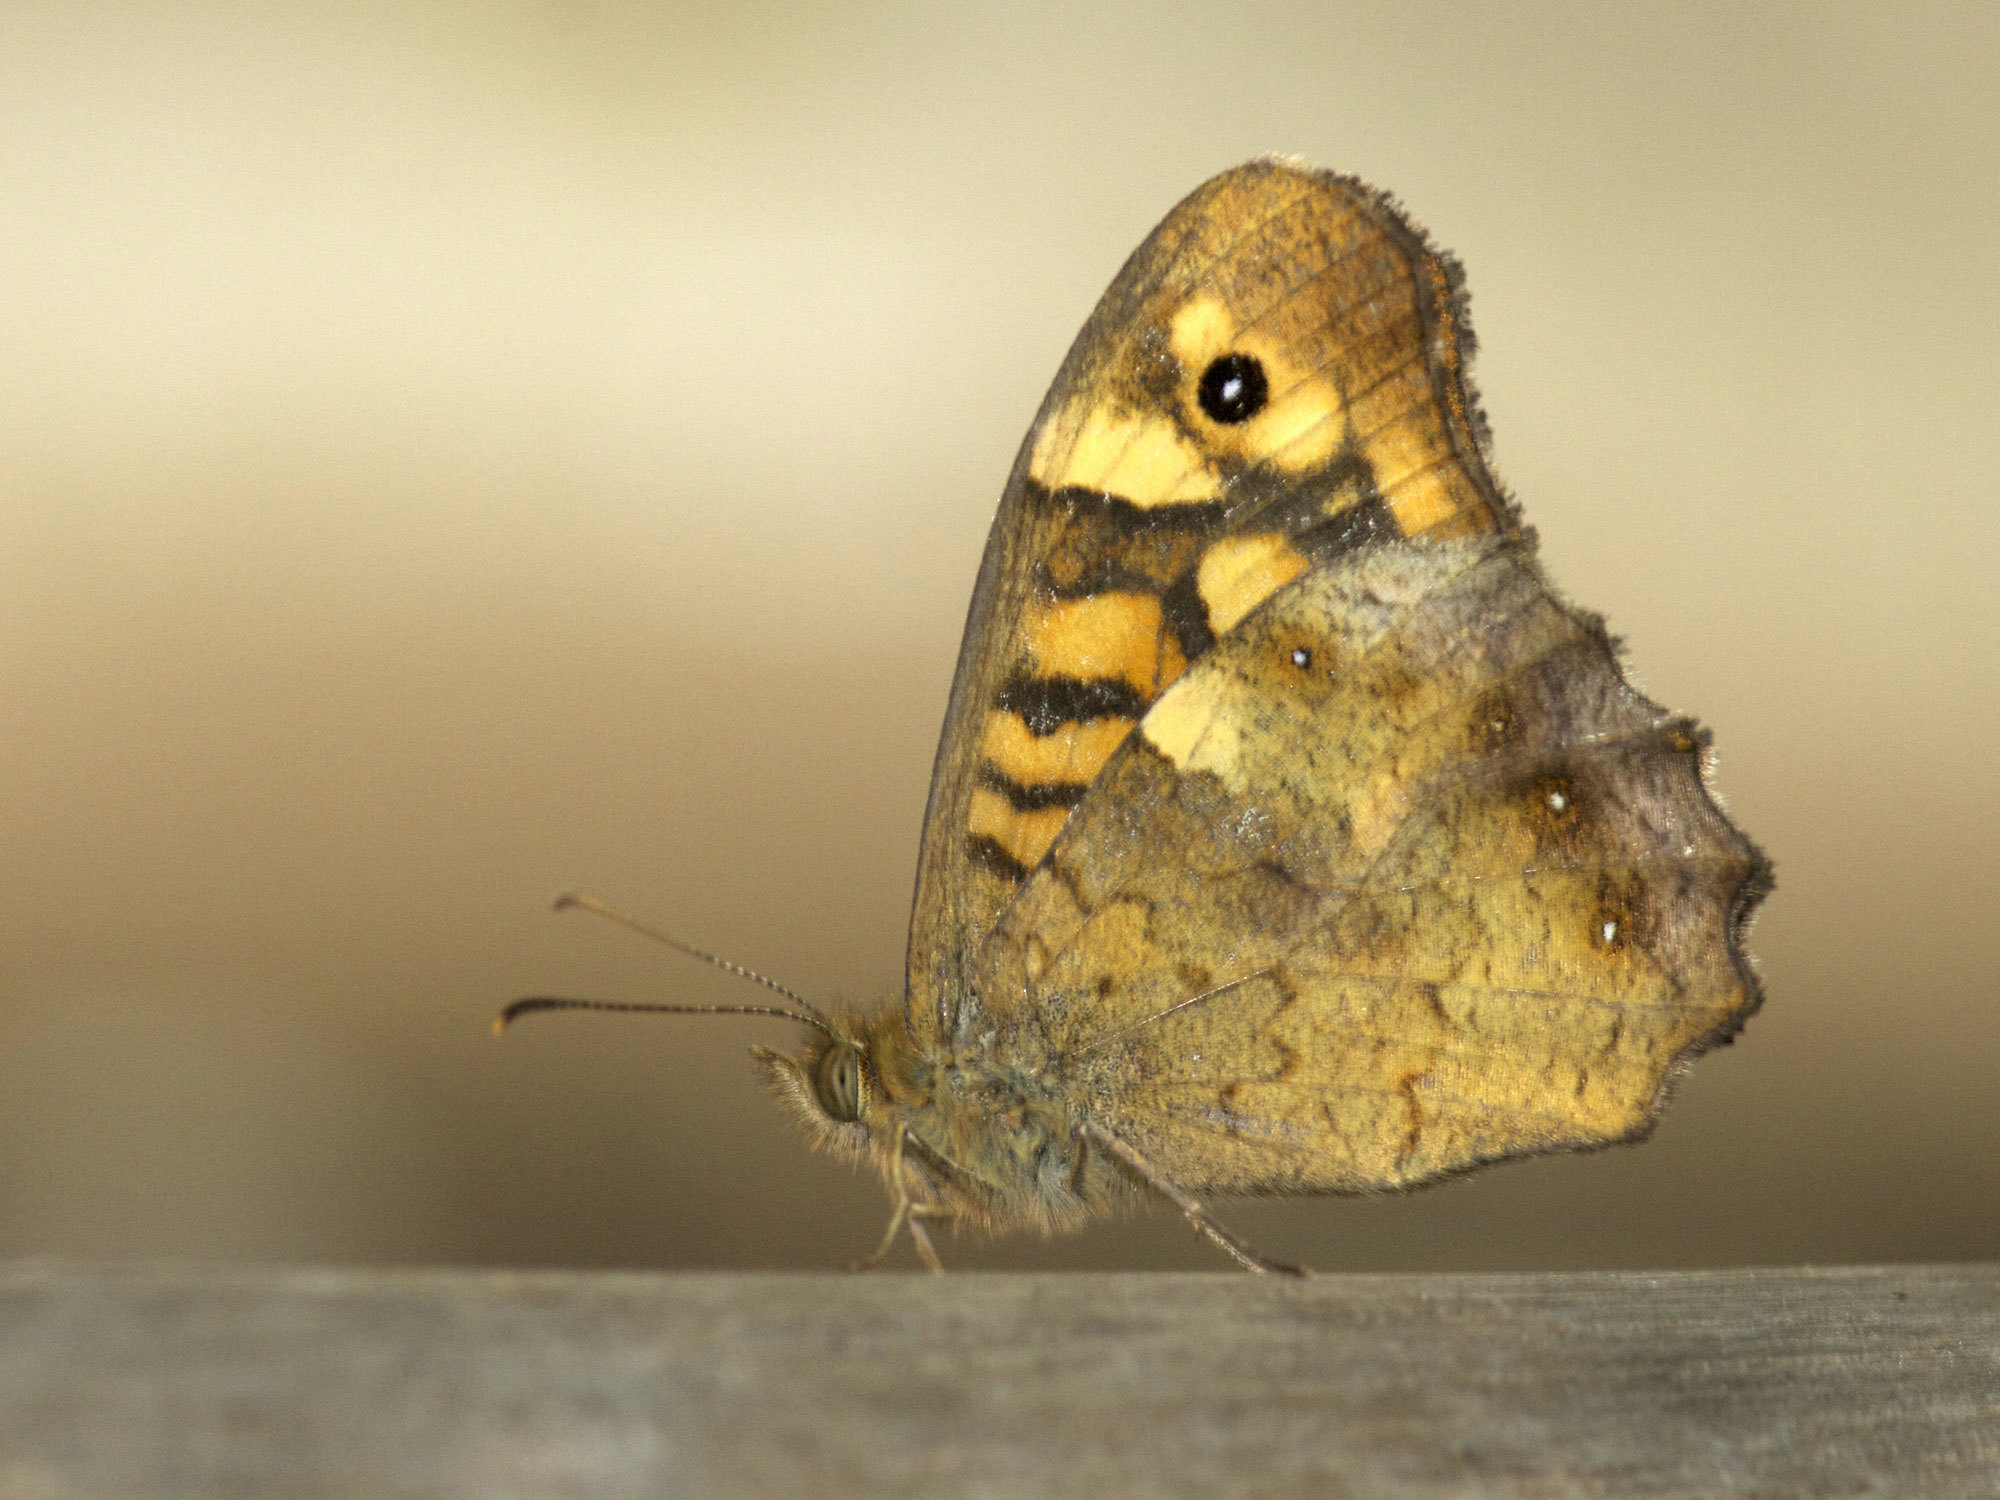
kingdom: Animalia
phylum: Arthropoda
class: Insecta
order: Lepidoptera
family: Nymphalidae
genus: Pararge
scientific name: Pararge aegeria
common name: Speckled wood
